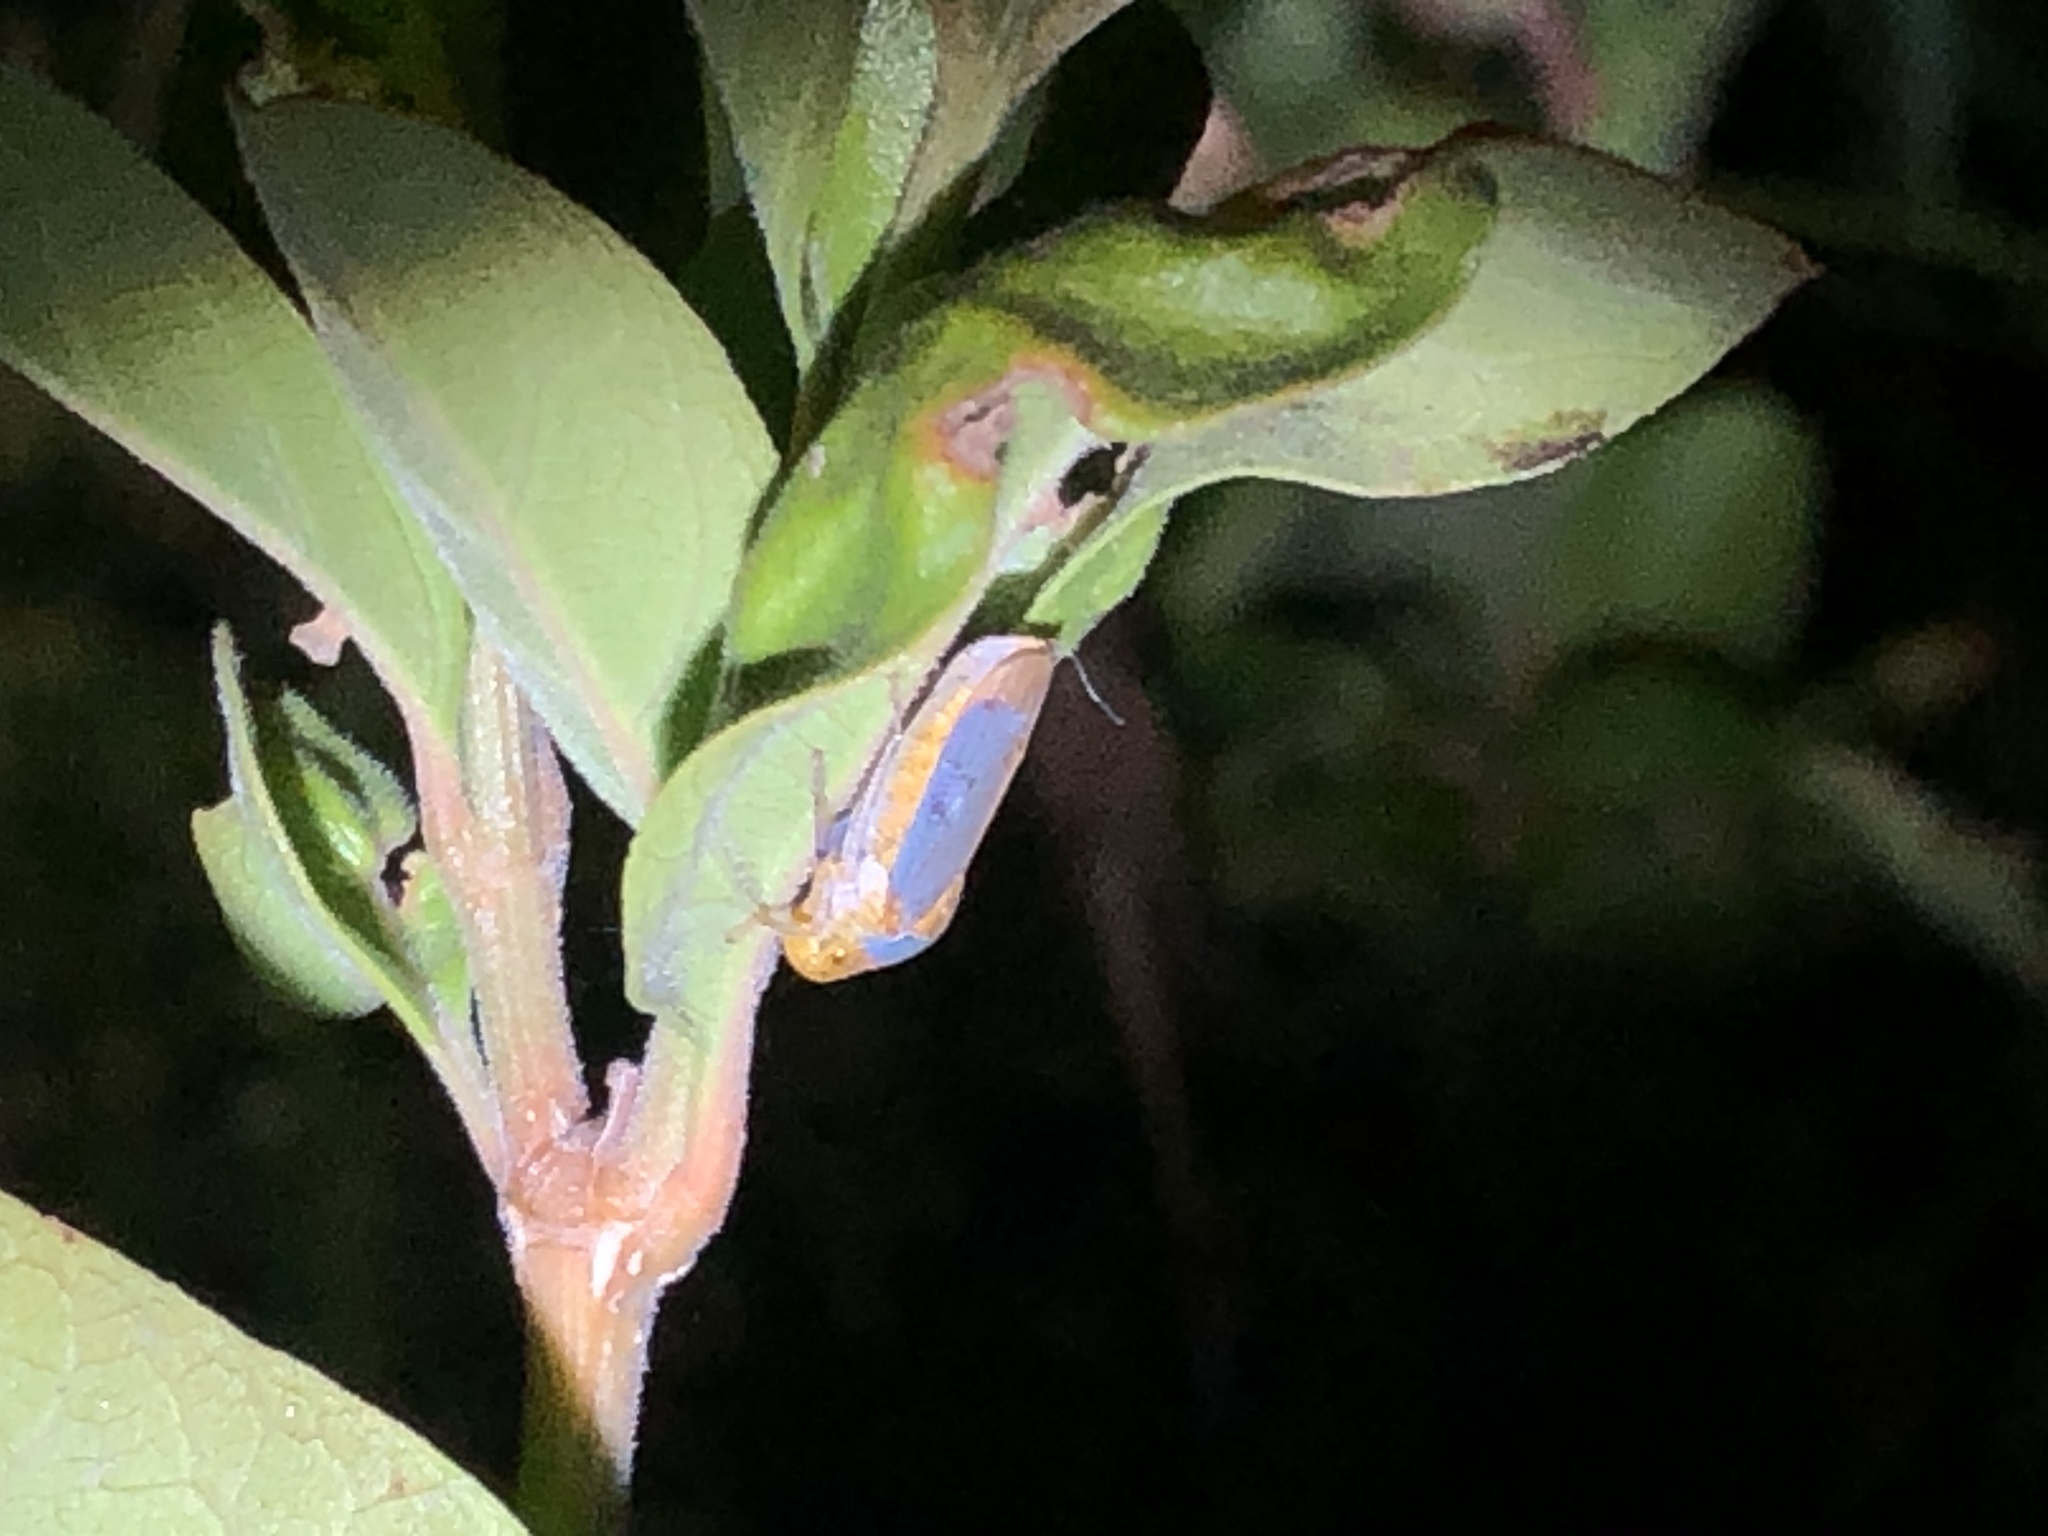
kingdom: Animalia
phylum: Arthropoda
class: Insecta
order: Hemiptera
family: Cicadellidae
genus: Oncometopia
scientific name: Oncometopia hamiltoni
